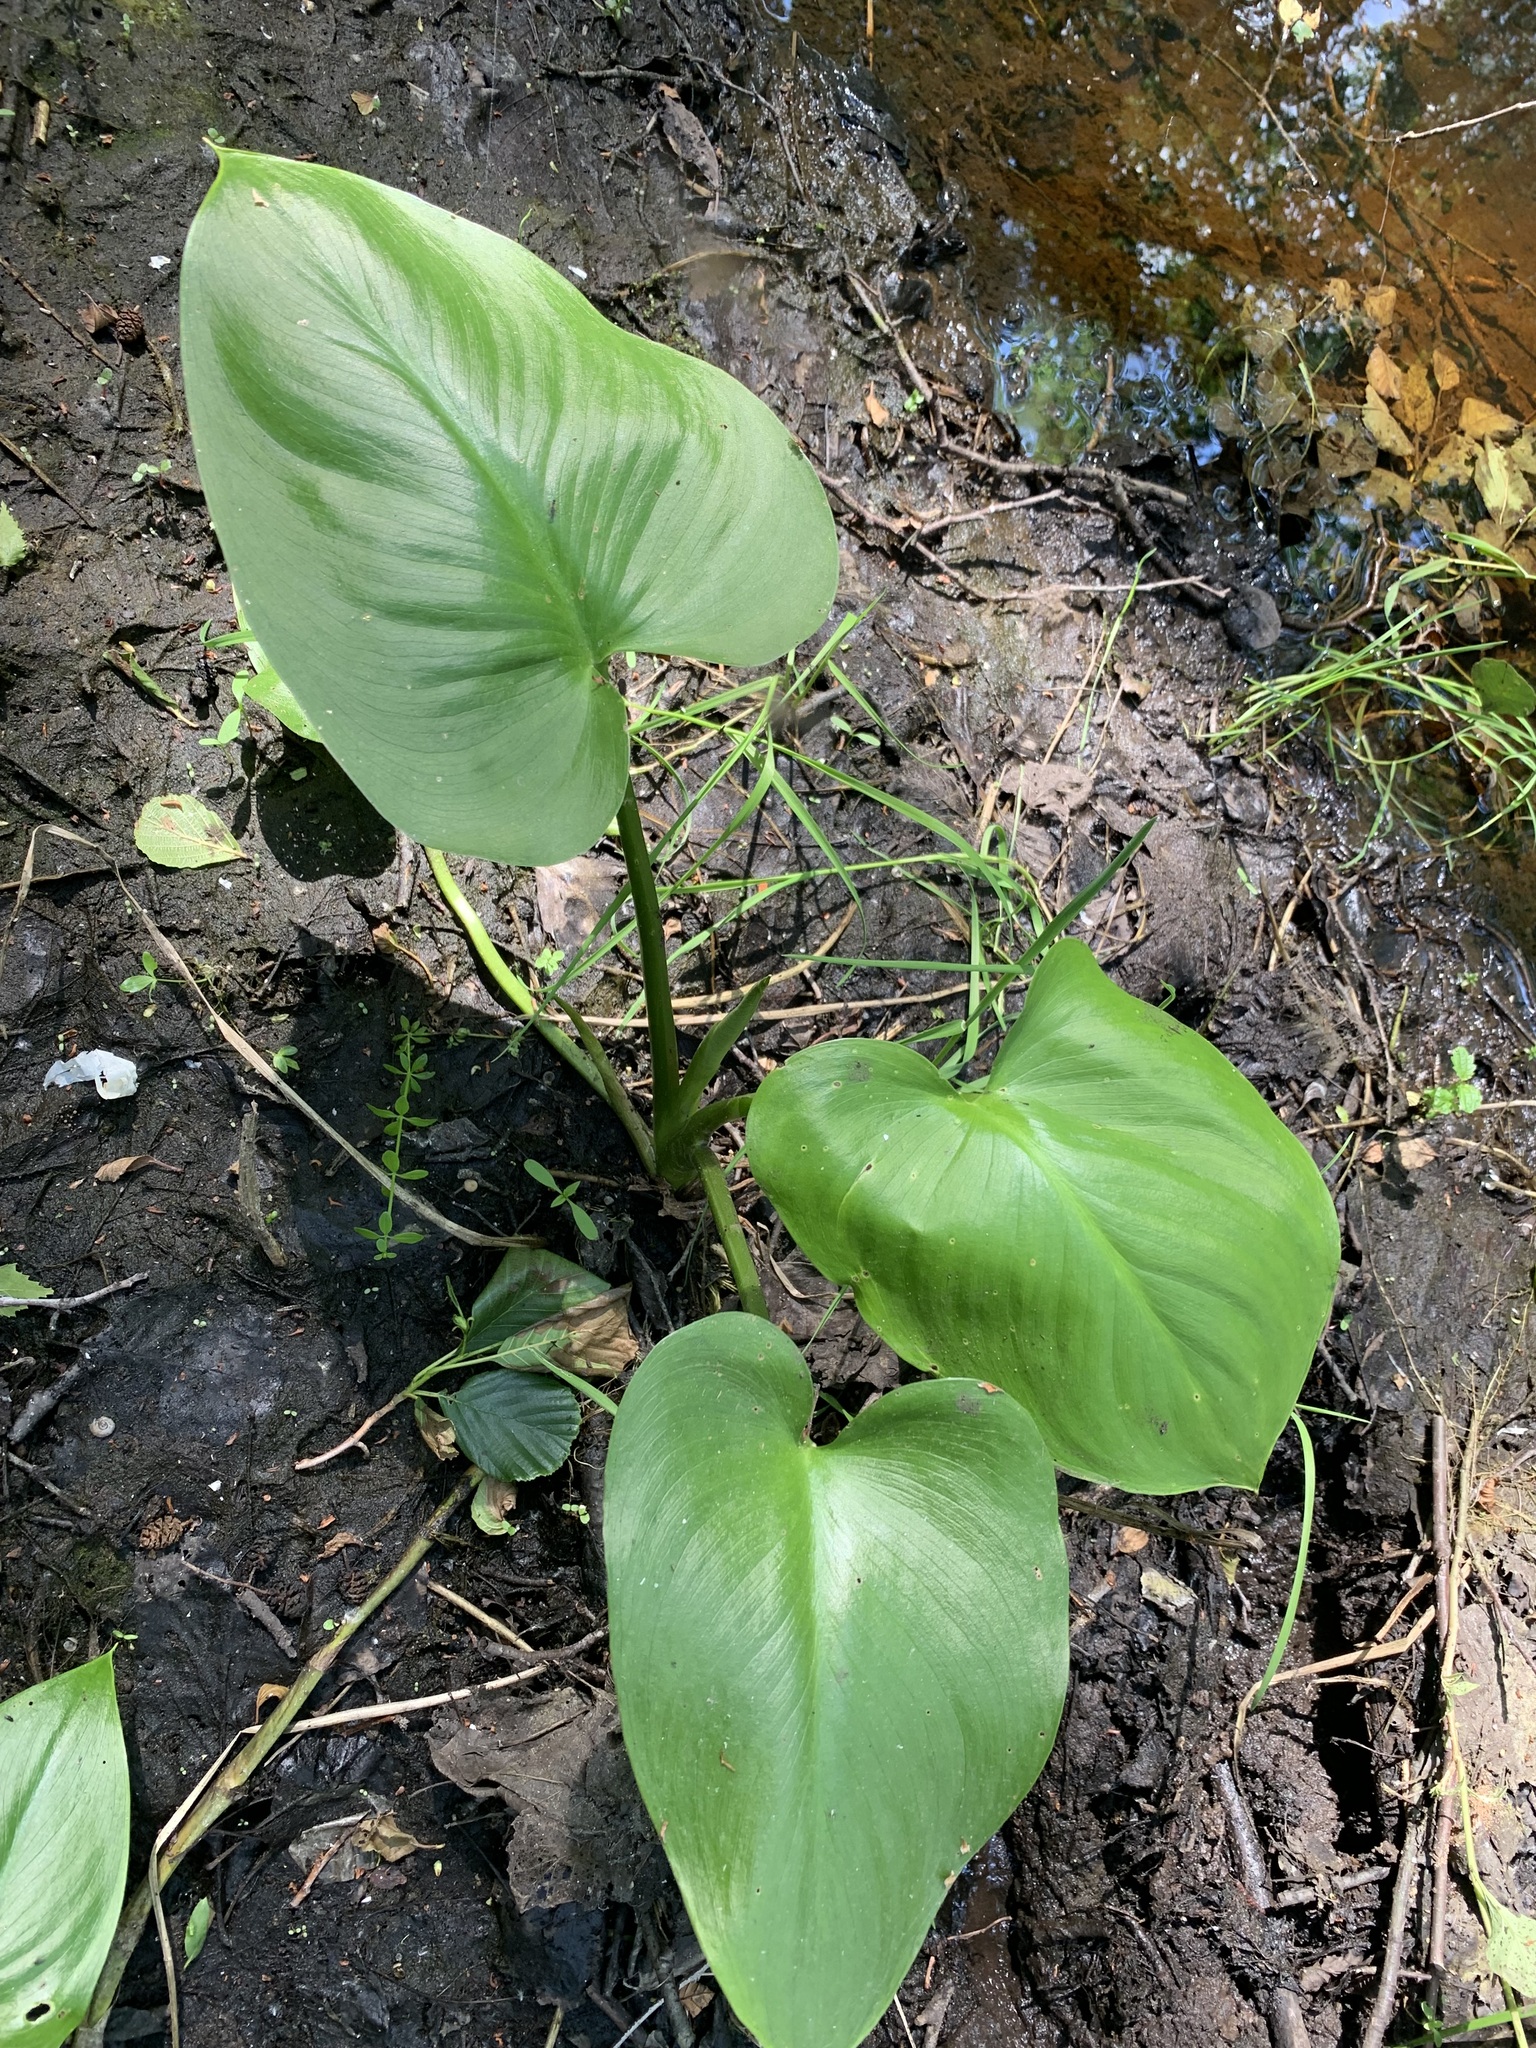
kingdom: Plantae
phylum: Tracheophyta
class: Liliopsida
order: Alismatales
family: Araceae
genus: Calla
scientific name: Calla palustris
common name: Bog arum
